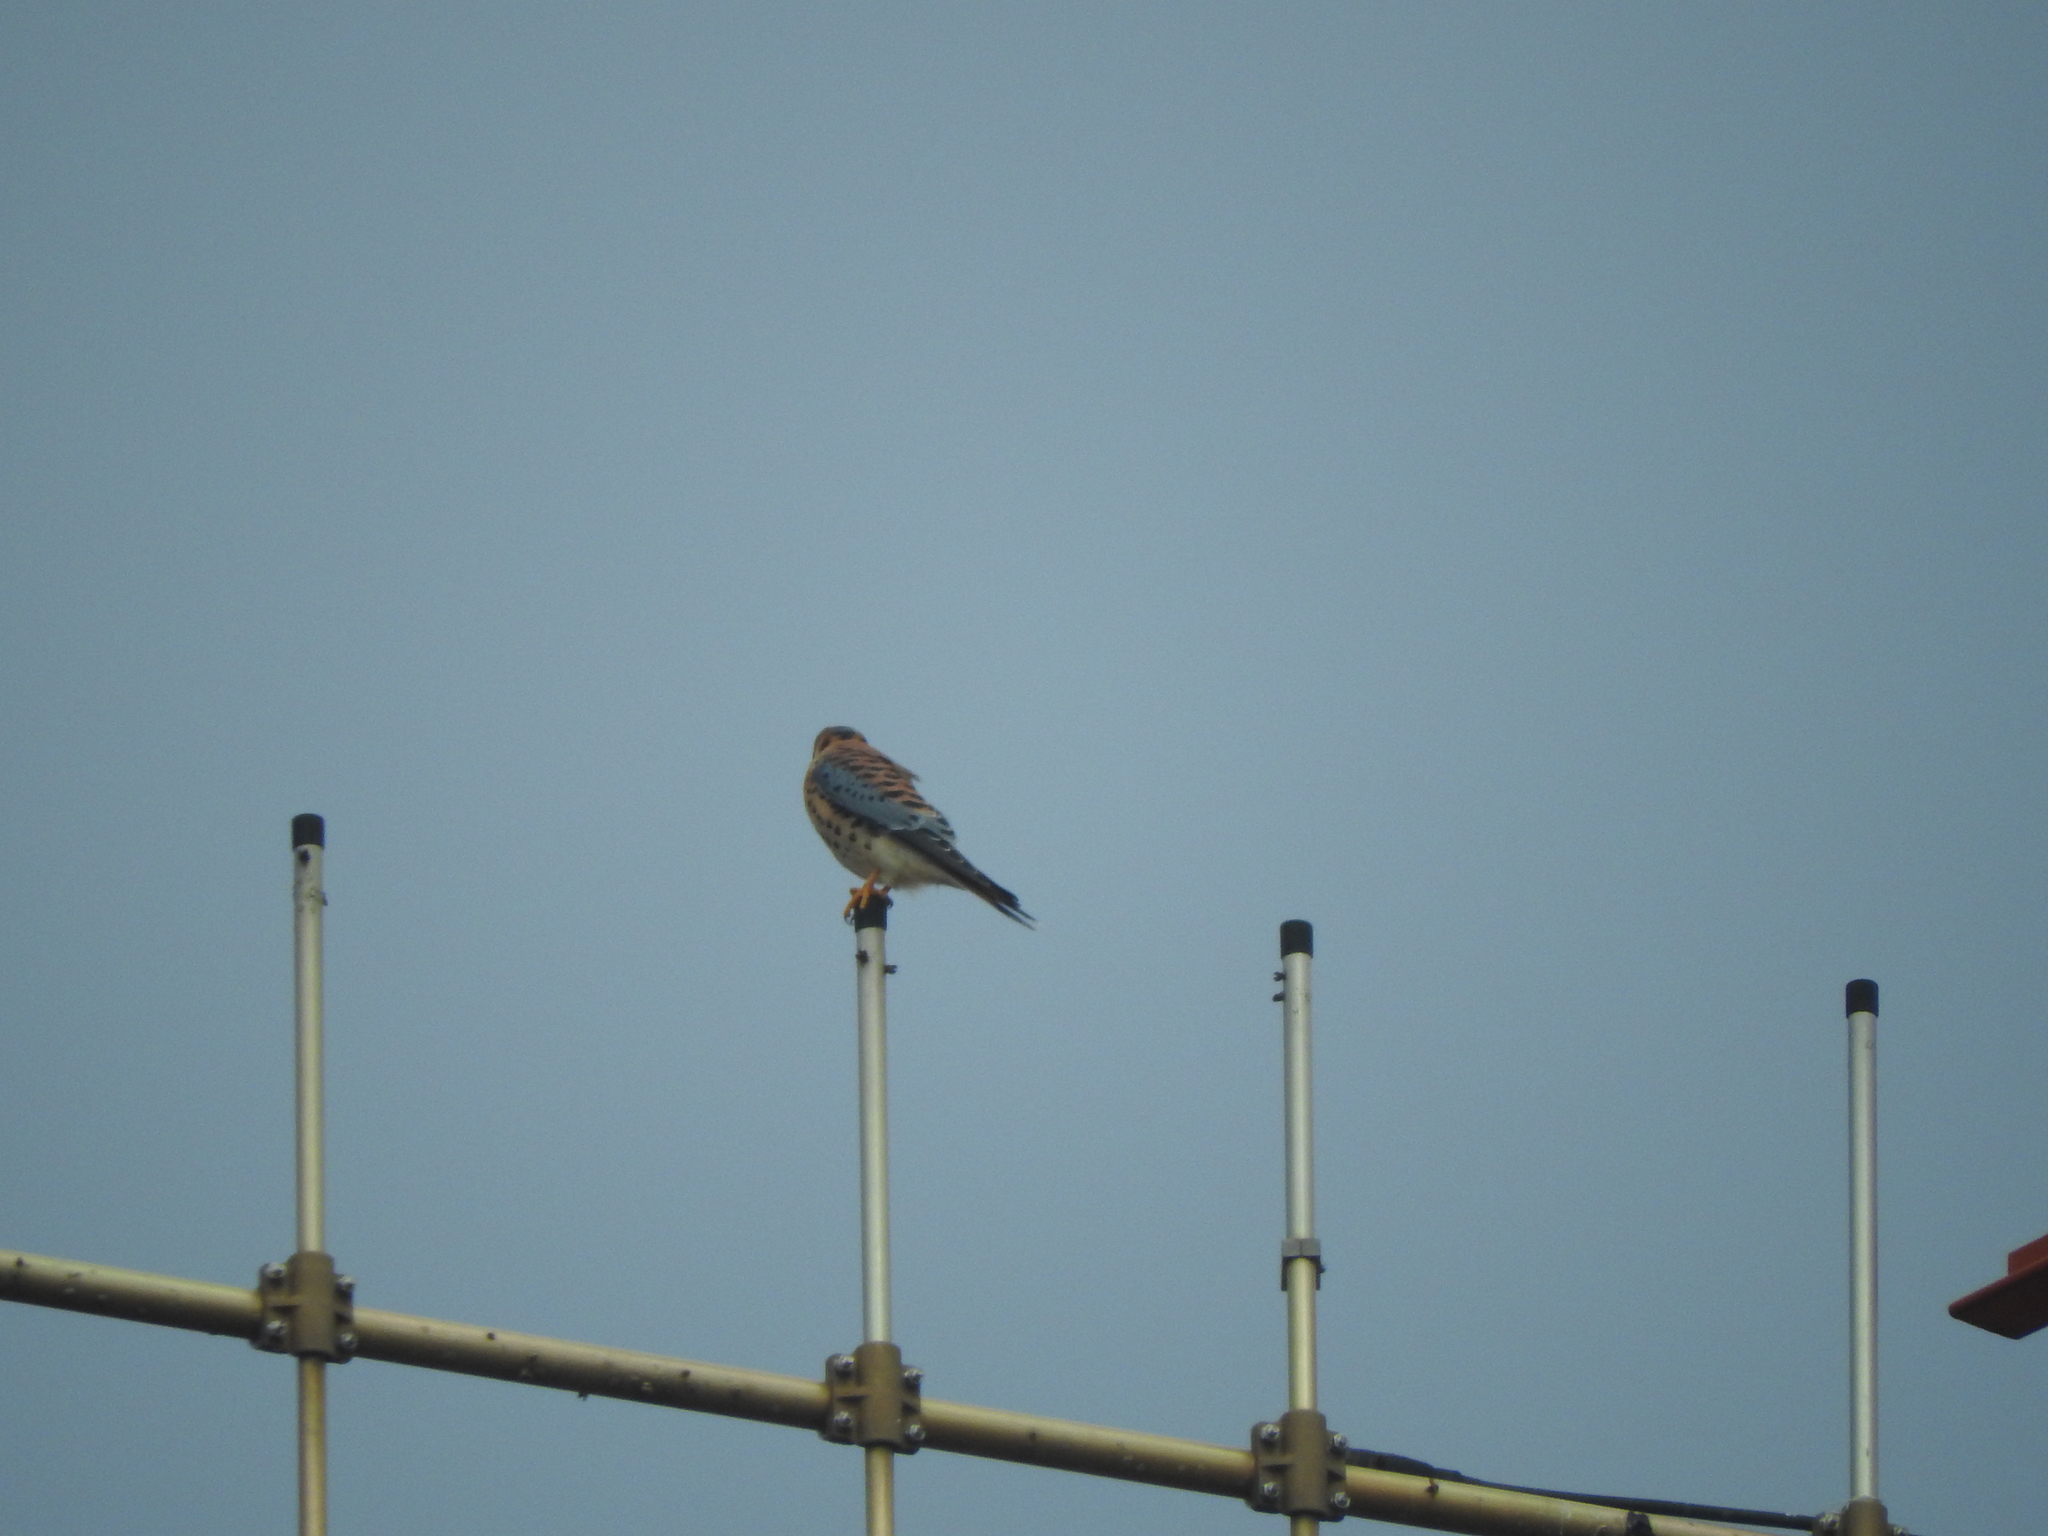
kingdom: Animalia
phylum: Chordata
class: Aves
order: Falconiformes
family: Falconidae
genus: Falco
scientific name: Falco sparverius
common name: American kestrel
